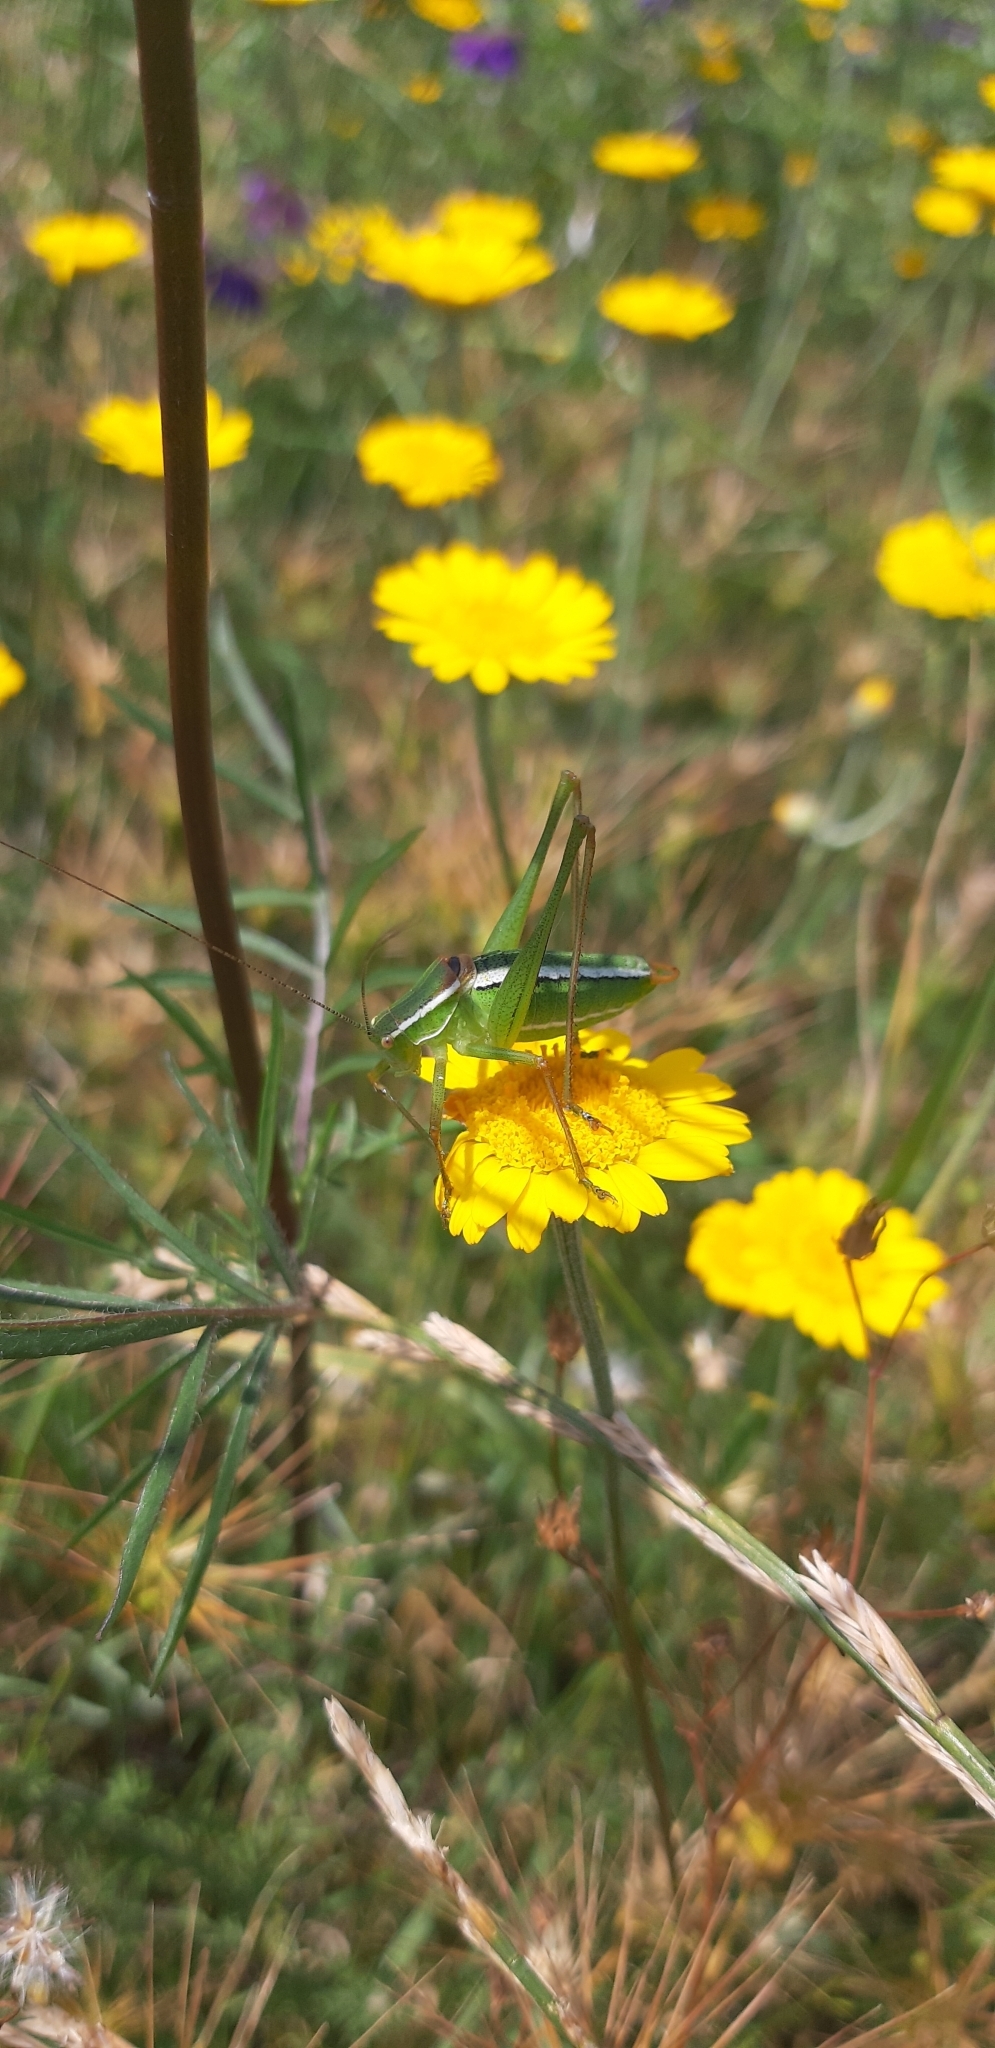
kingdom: Animalia
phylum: Arthropoda
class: Insecta
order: Orthoptera
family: Tettigoniidae
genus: Poecilimon
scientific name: Poecilimon superbus
